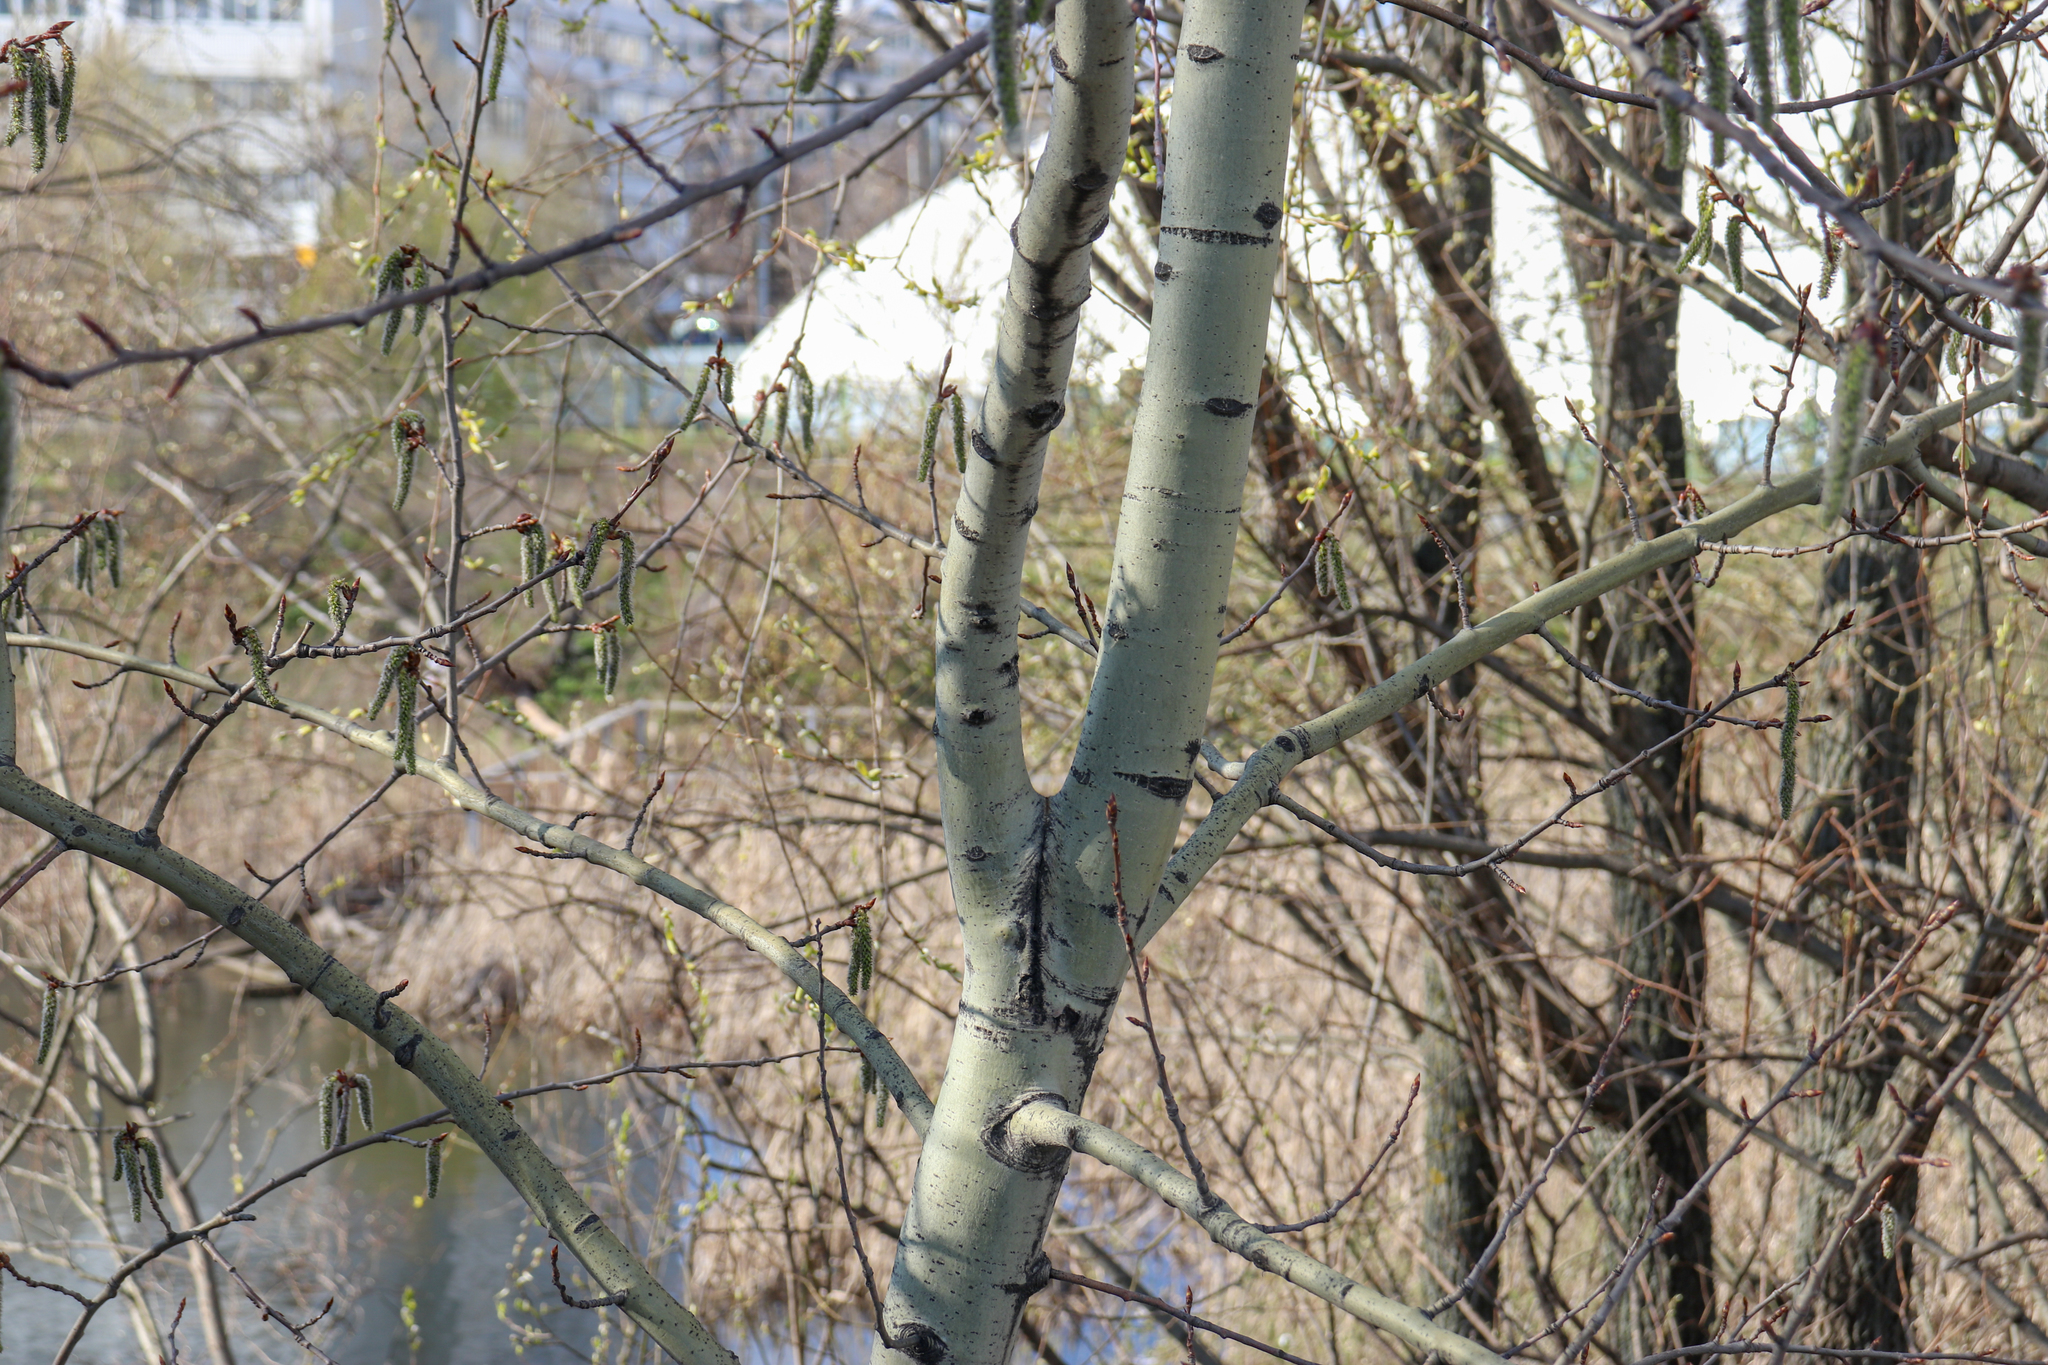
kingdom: Plantae
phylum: Tracheophyta
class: Magnoliopsida
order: Malpighiales
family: Salicaceae
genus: Populus
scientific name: Populus tremula
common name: European aspen
